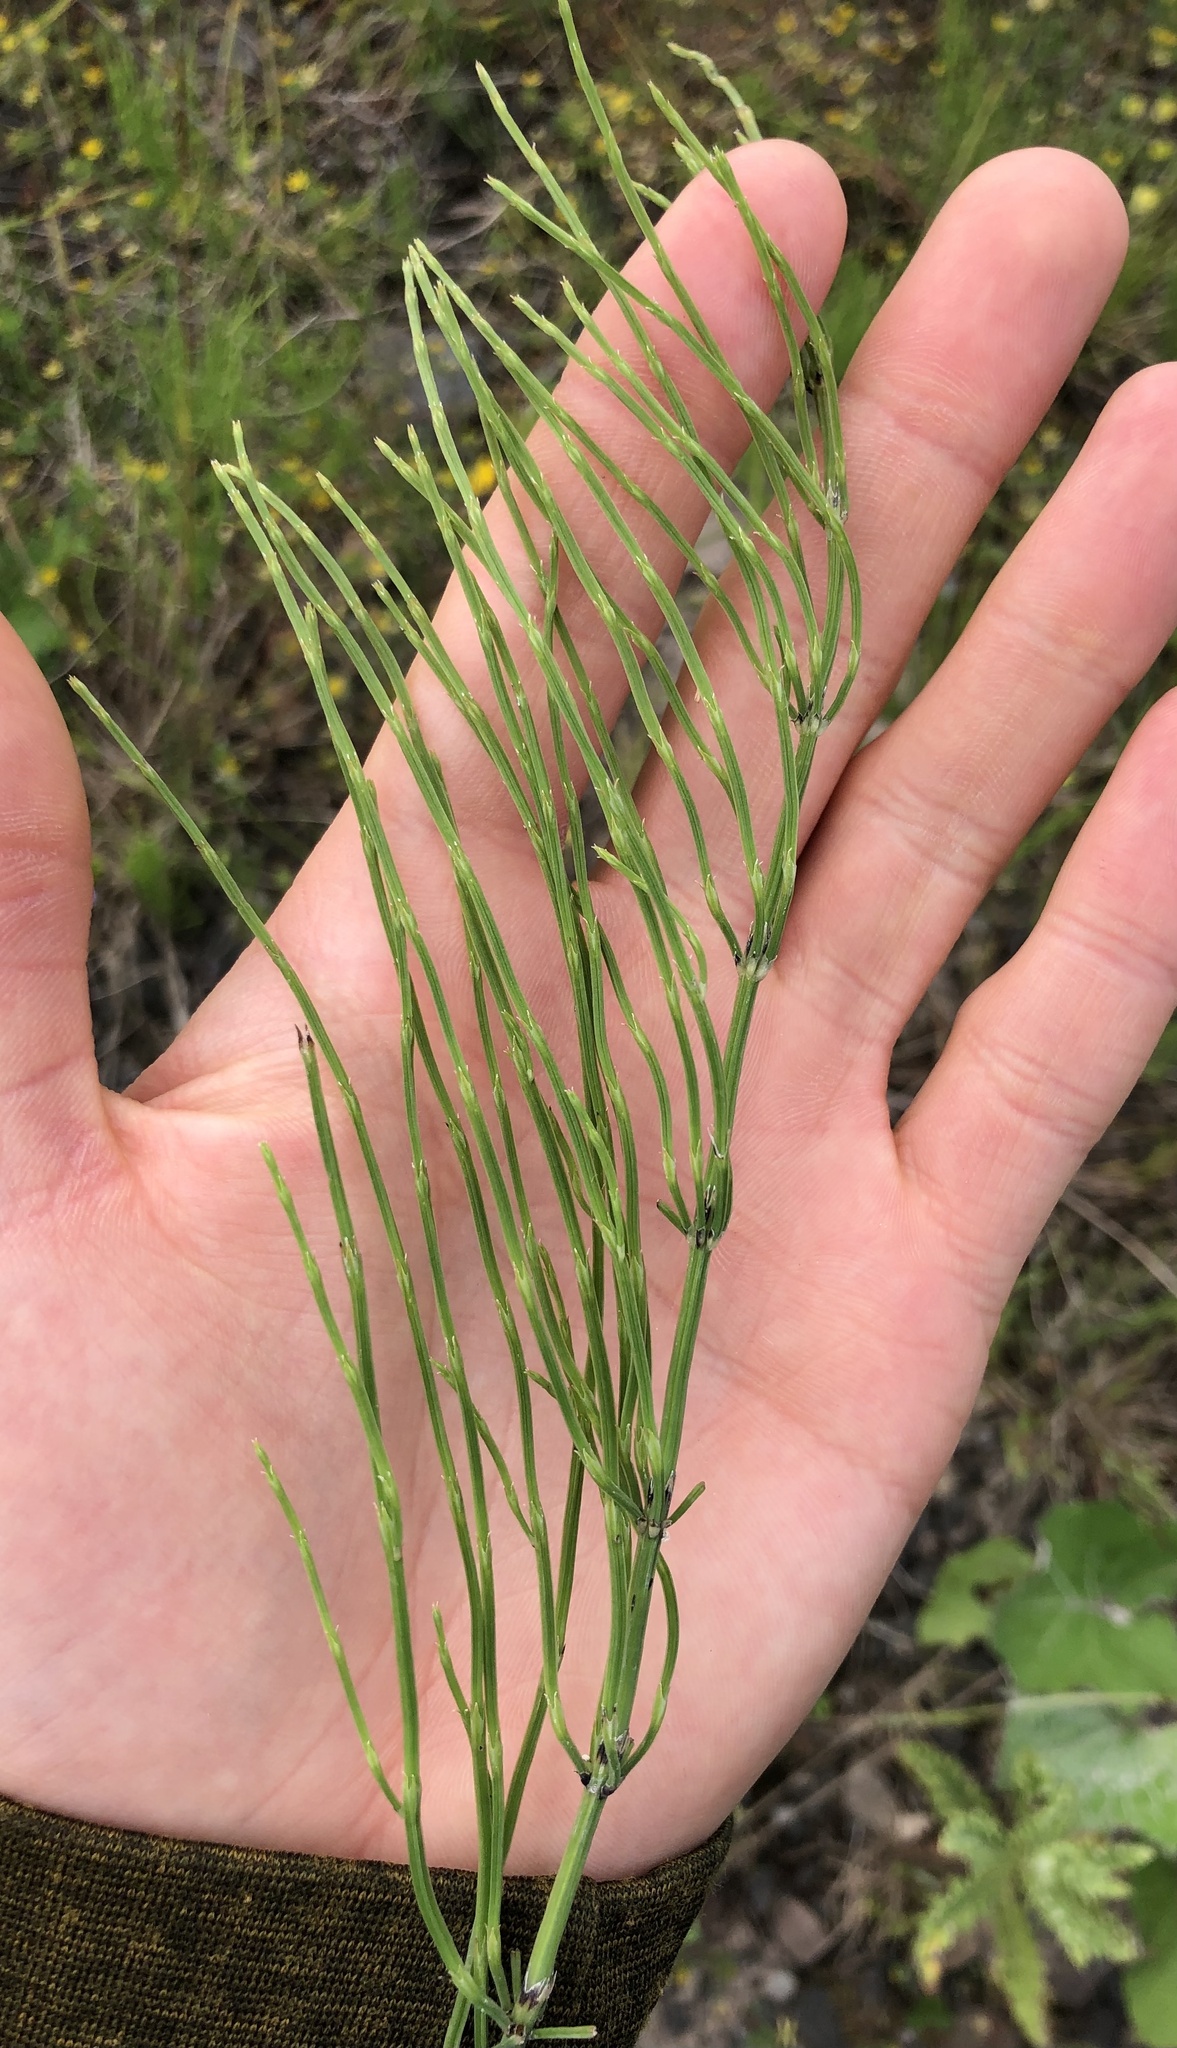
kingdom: Plantae
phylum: Tracheophyta
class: Polypodiopsida
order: Equisetales
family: Equisetaceae
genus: Equisetum
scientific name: Equisetum arvense
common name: Field horsetail
